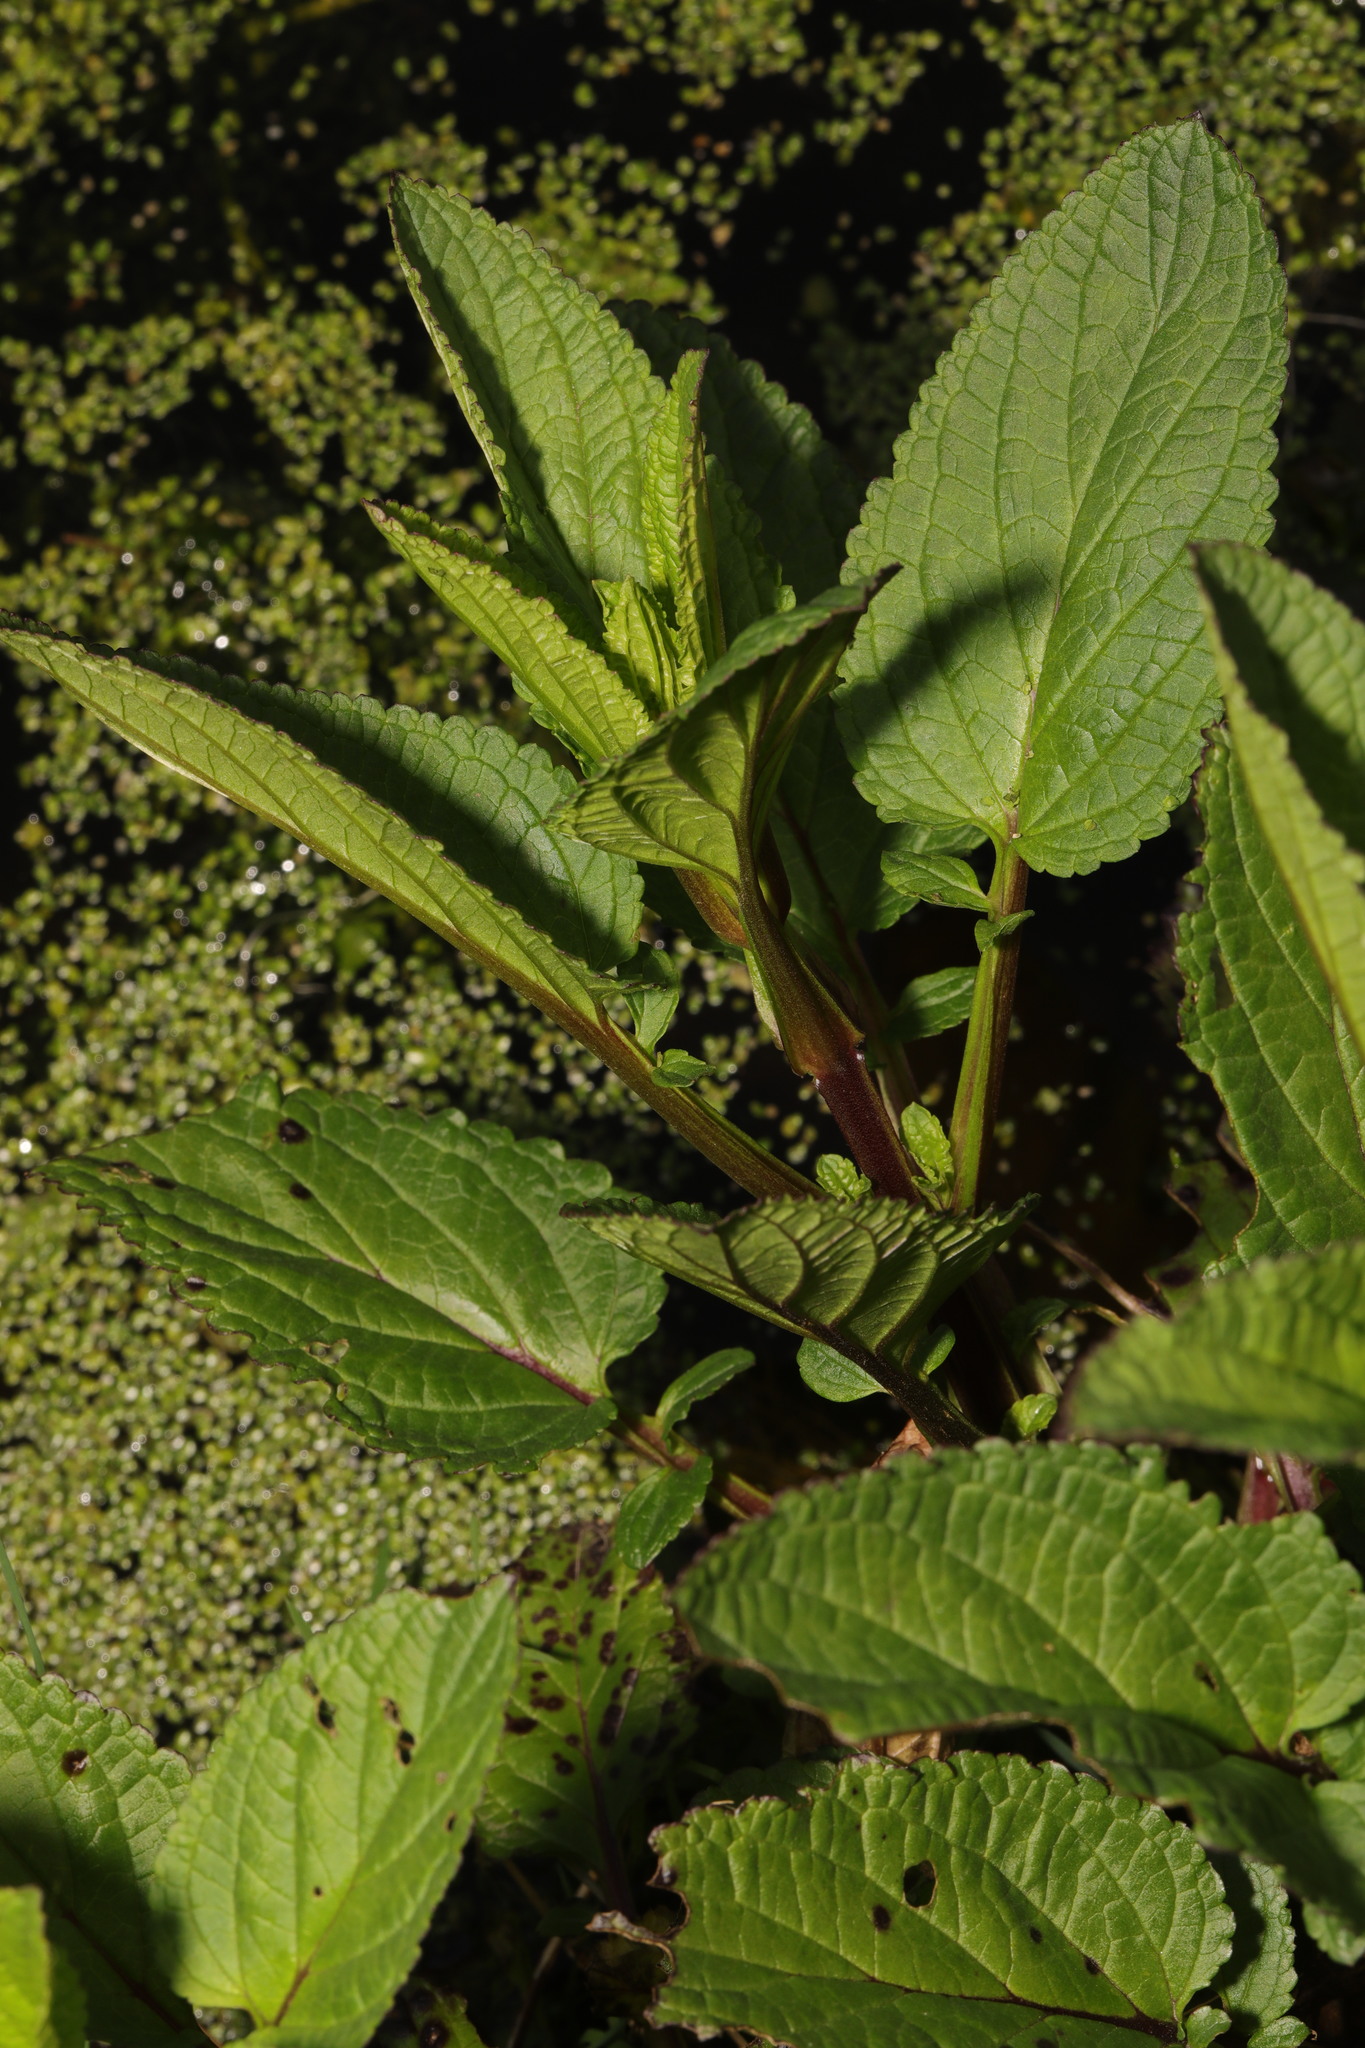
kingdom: Plantae
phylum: Tracheophyta
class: Magnoliopsida
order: Lamiales
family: Scrophulariaceae
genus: Scrophularia
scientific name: Scrophularia auriculata
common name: Water betony
